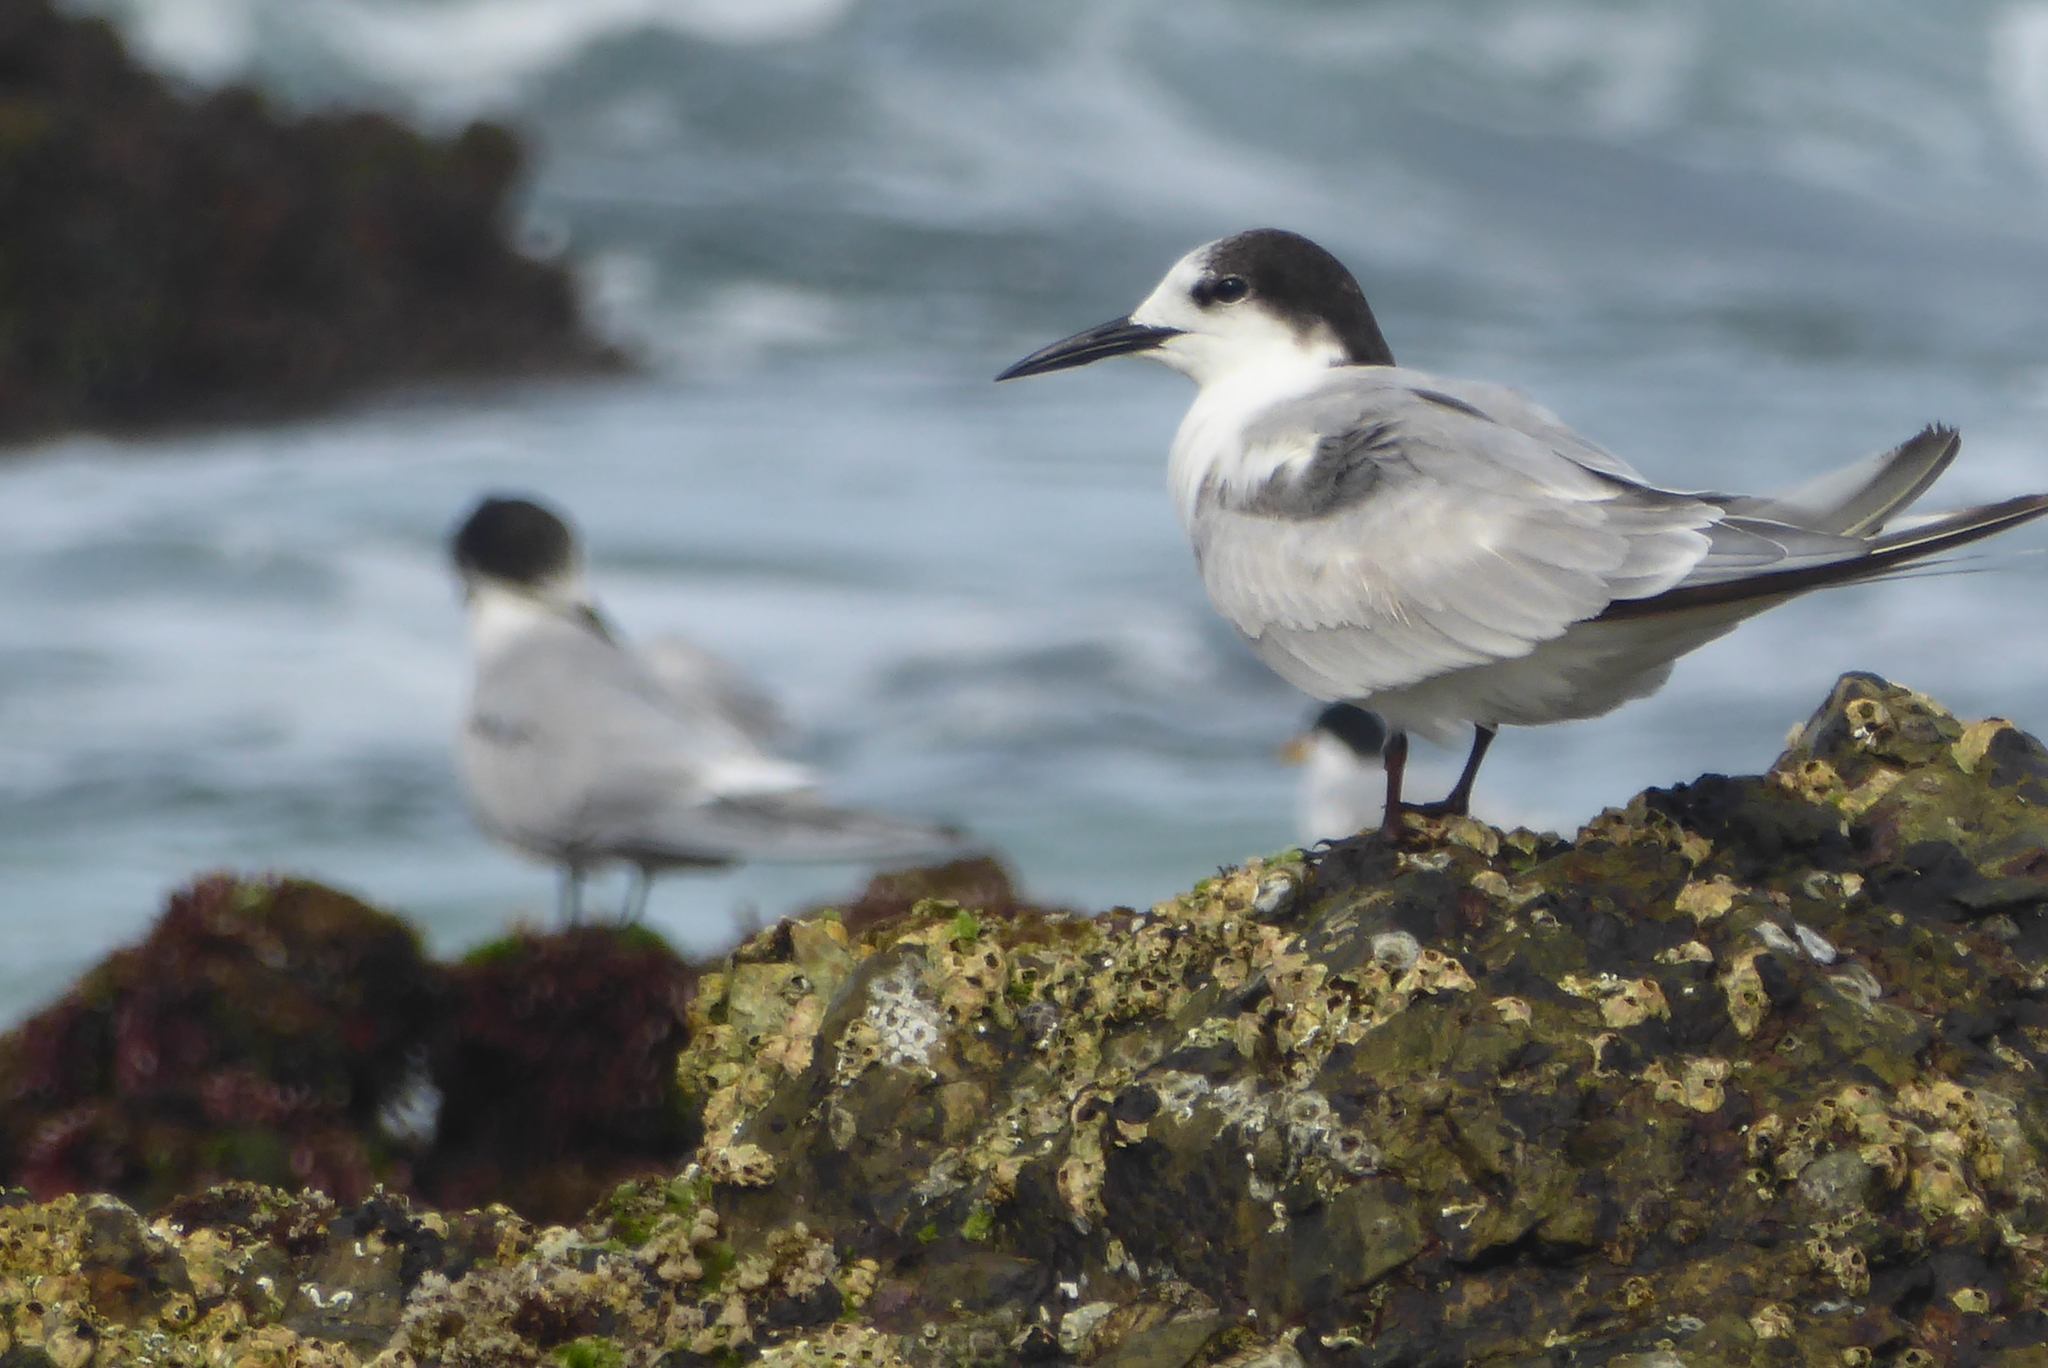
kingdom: Animalia
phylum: Chordata
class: Aves
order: Charadriiformes
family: Laridae
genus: Sterna
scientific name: Sterna hirundo
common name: Common tern
